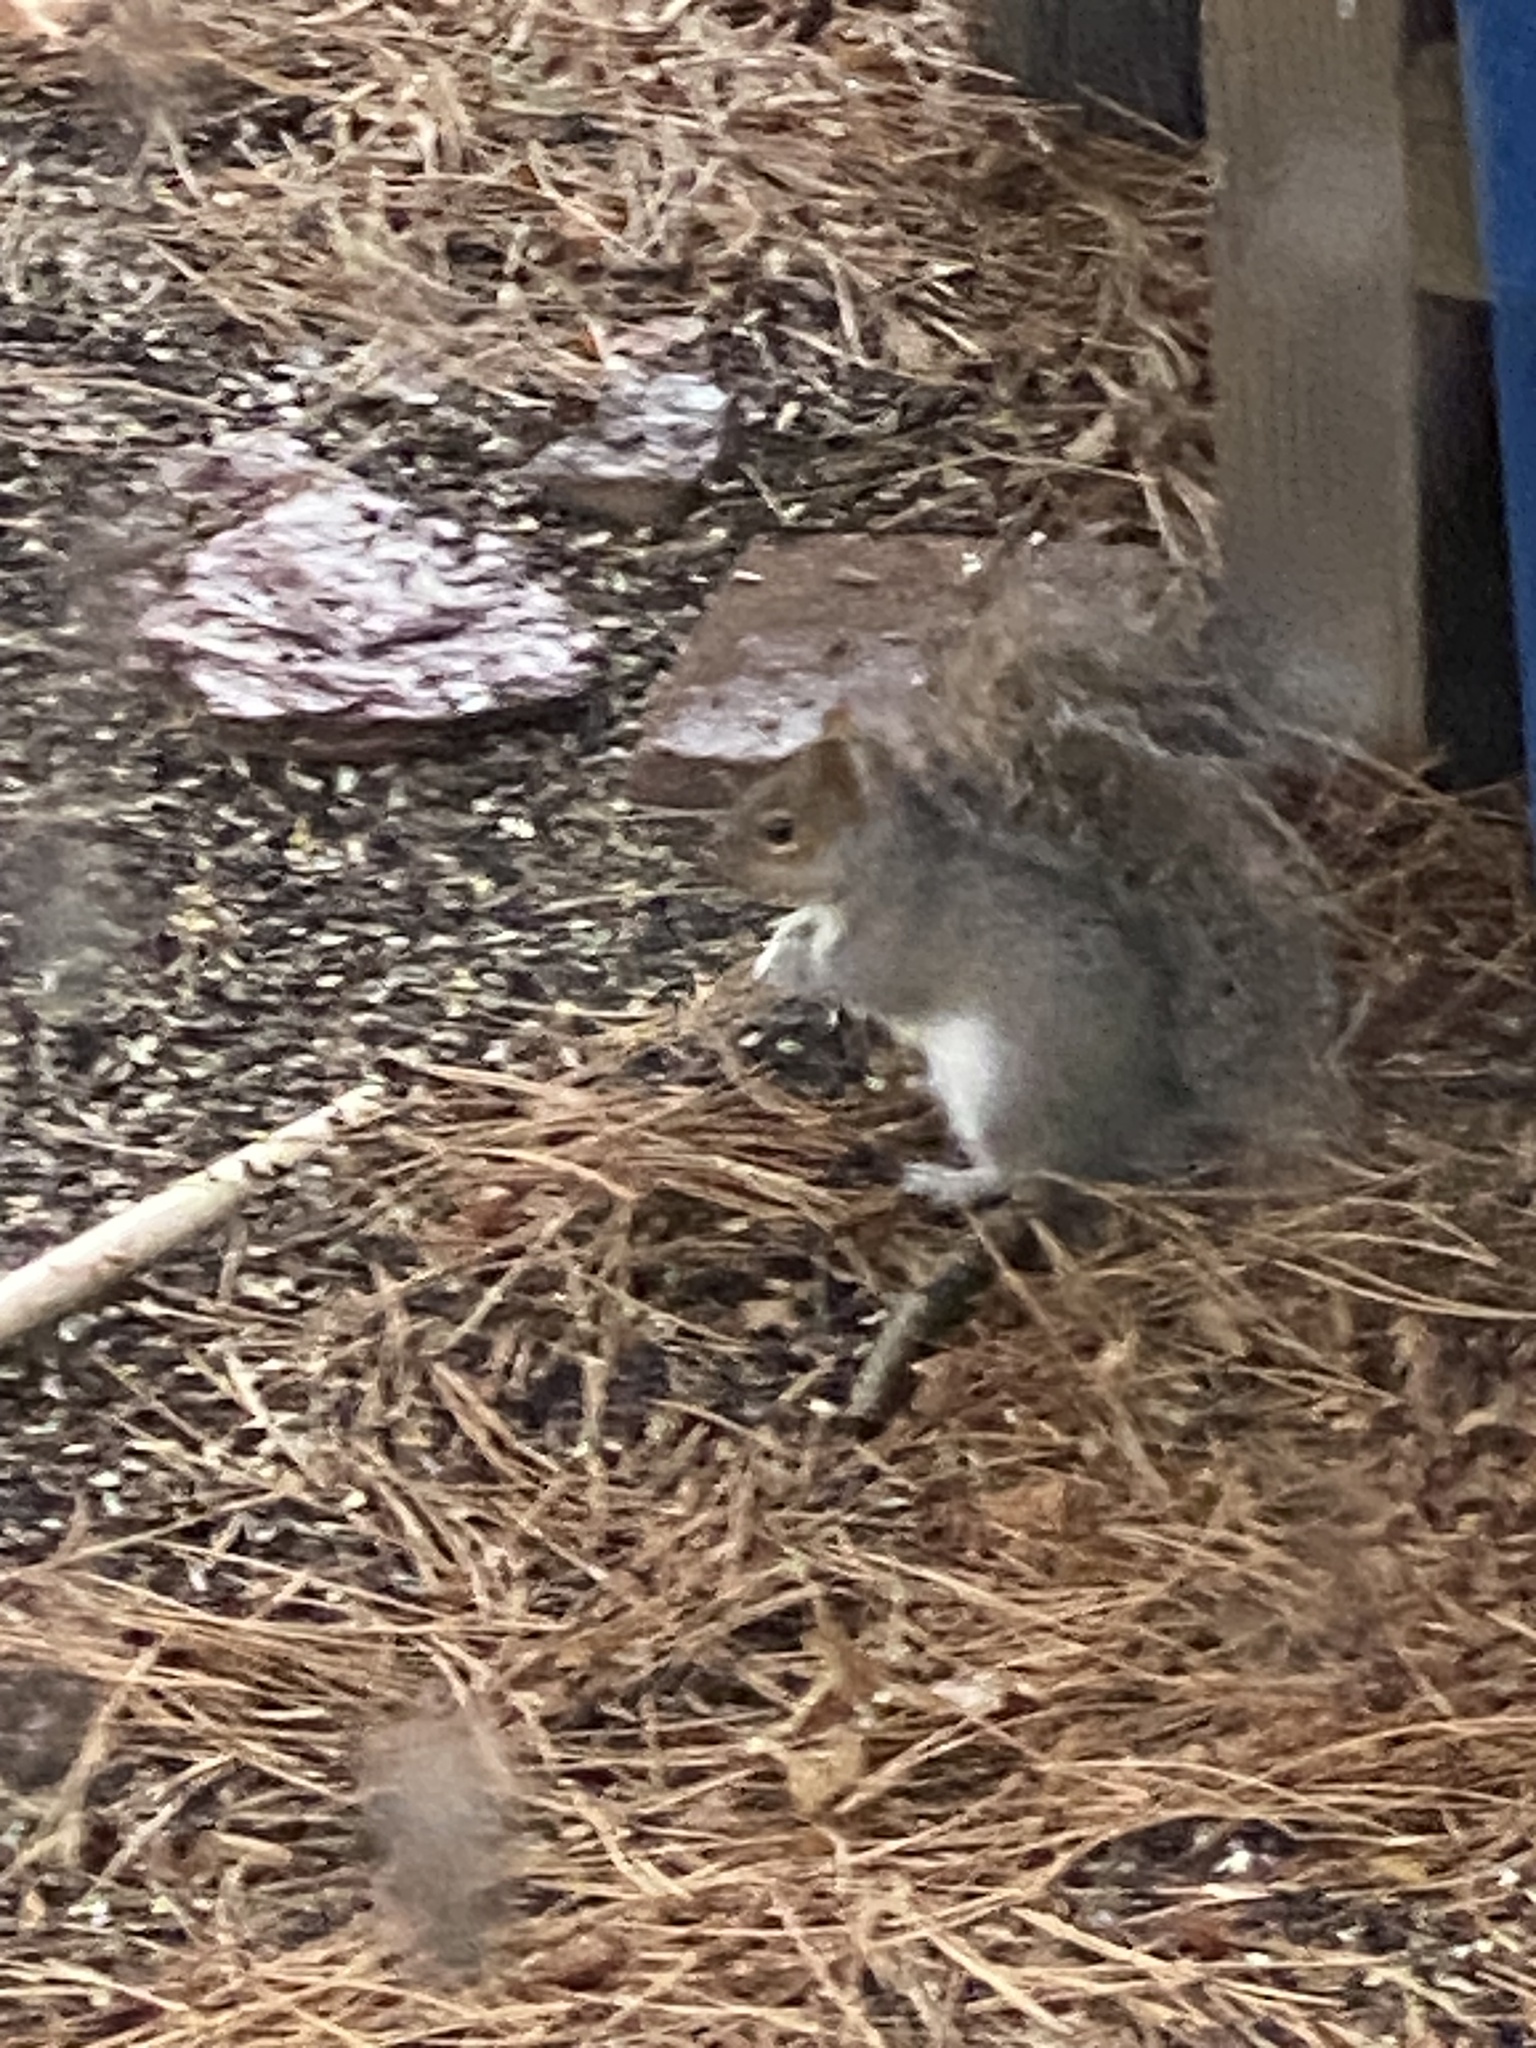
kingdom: Animalia
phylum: Chordata
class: Mammalia
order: Rodentia
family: Sciuridae
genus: Sciurus
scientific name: Sciurus carolinensis
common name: Eastern gray squirrel
